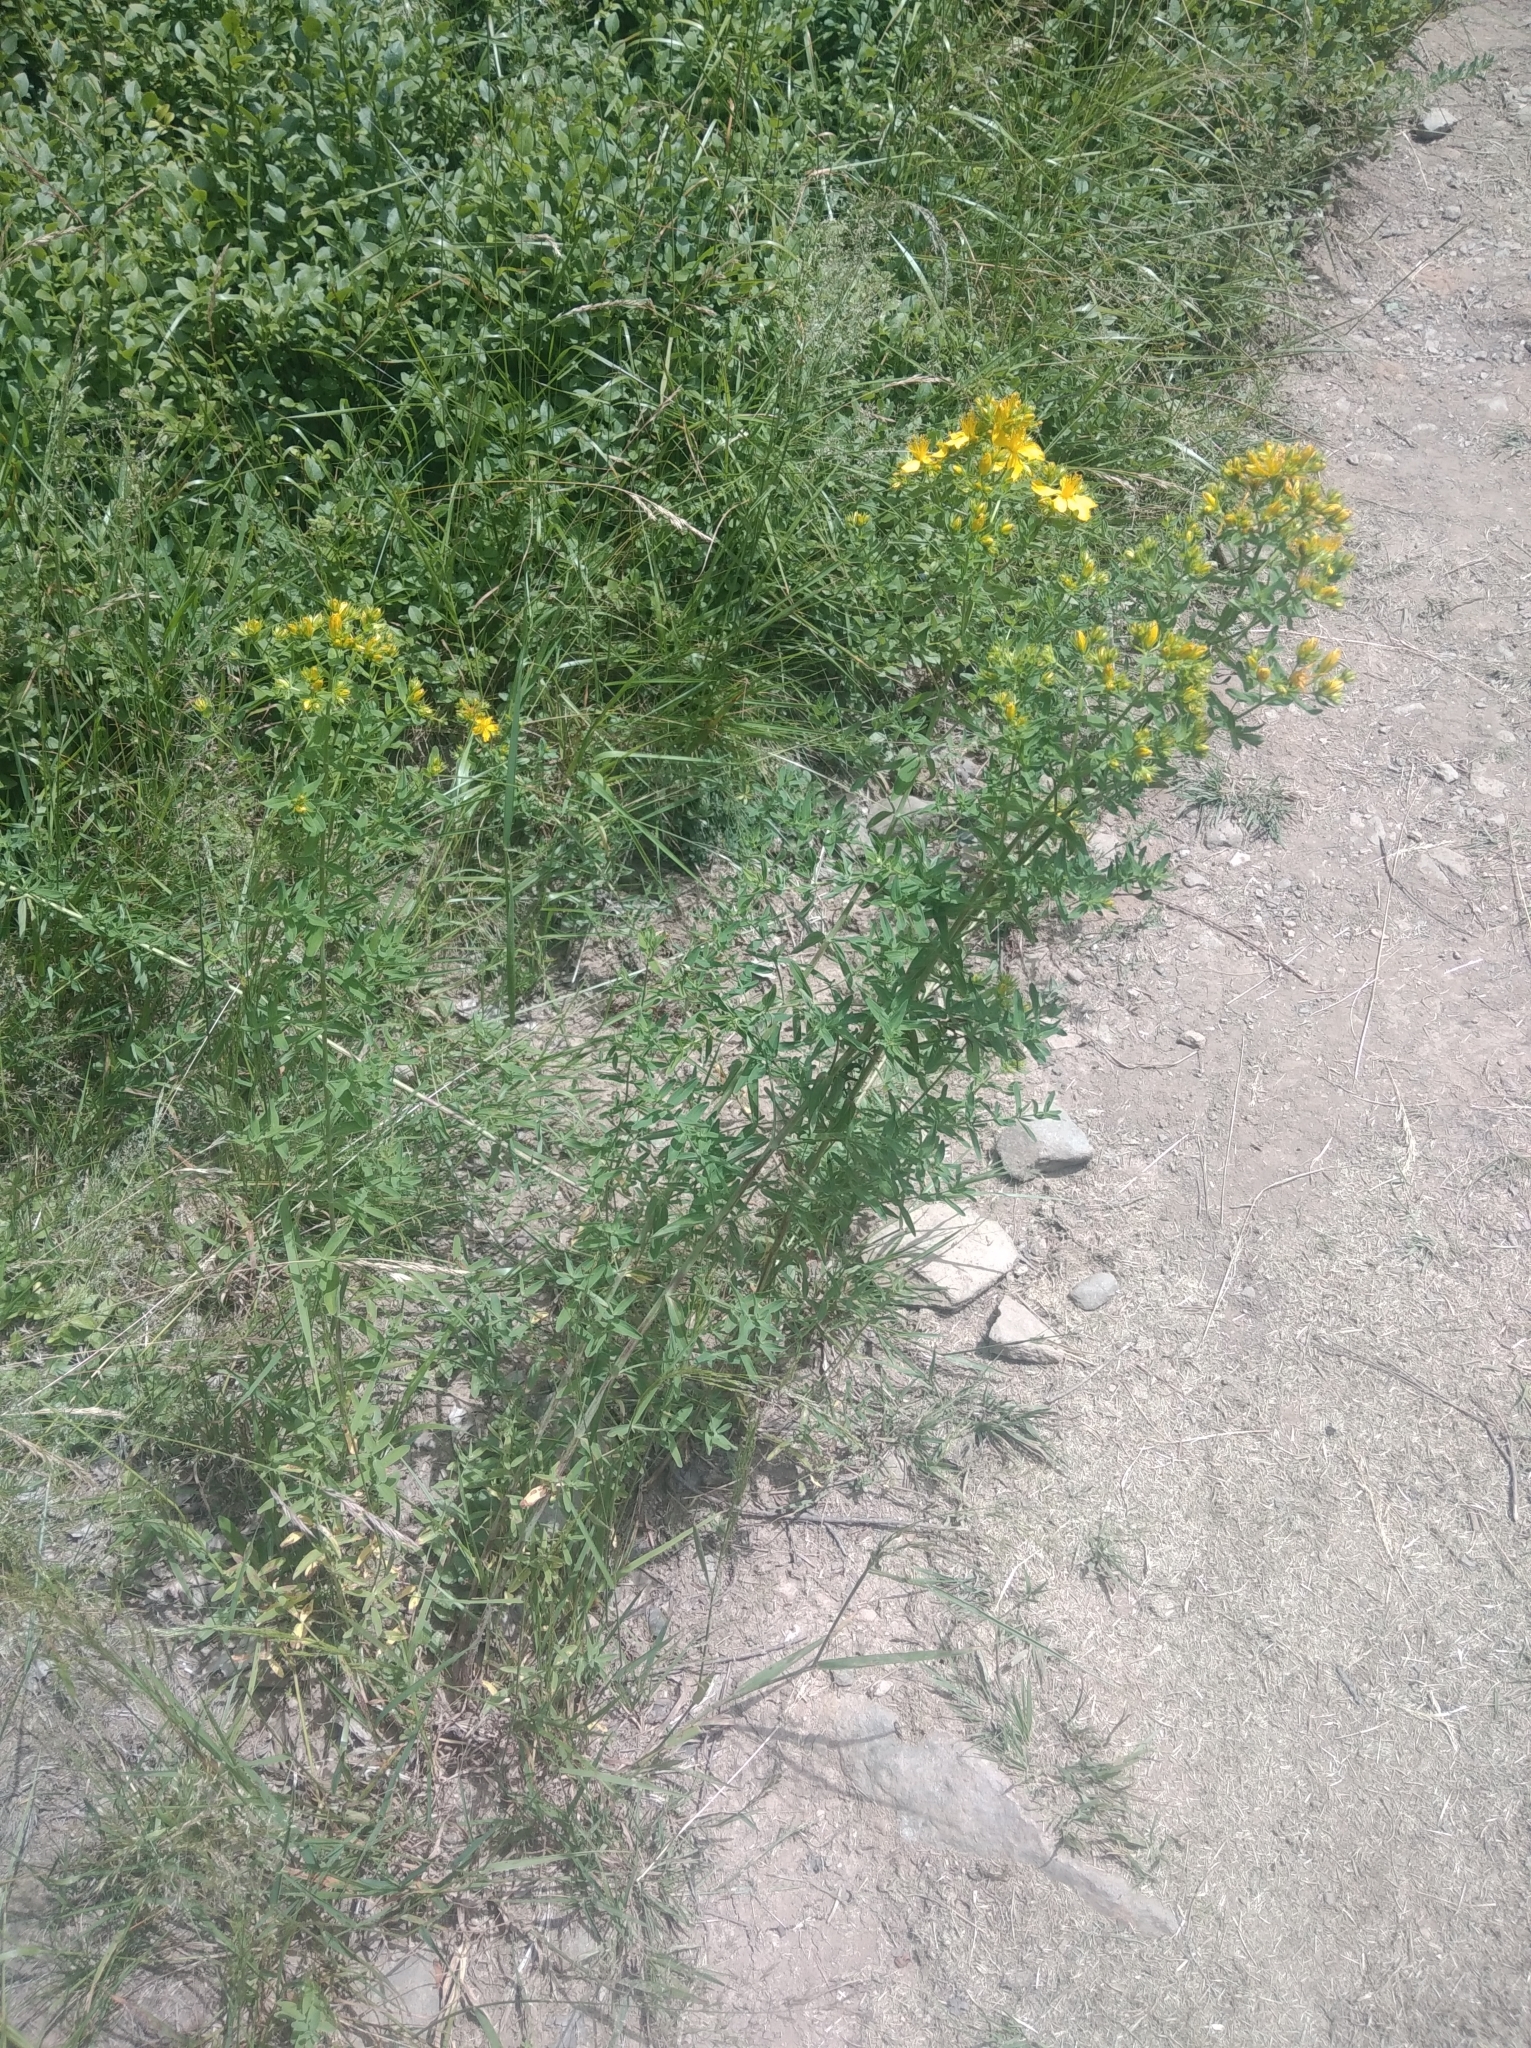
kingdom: Plantae
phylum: Tracheophyta
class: Magnoliopsida
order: Malpighiales
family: Hypericaceae
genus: Hypericum
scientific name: Hypericum perforatum
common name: Common st. johnswort
